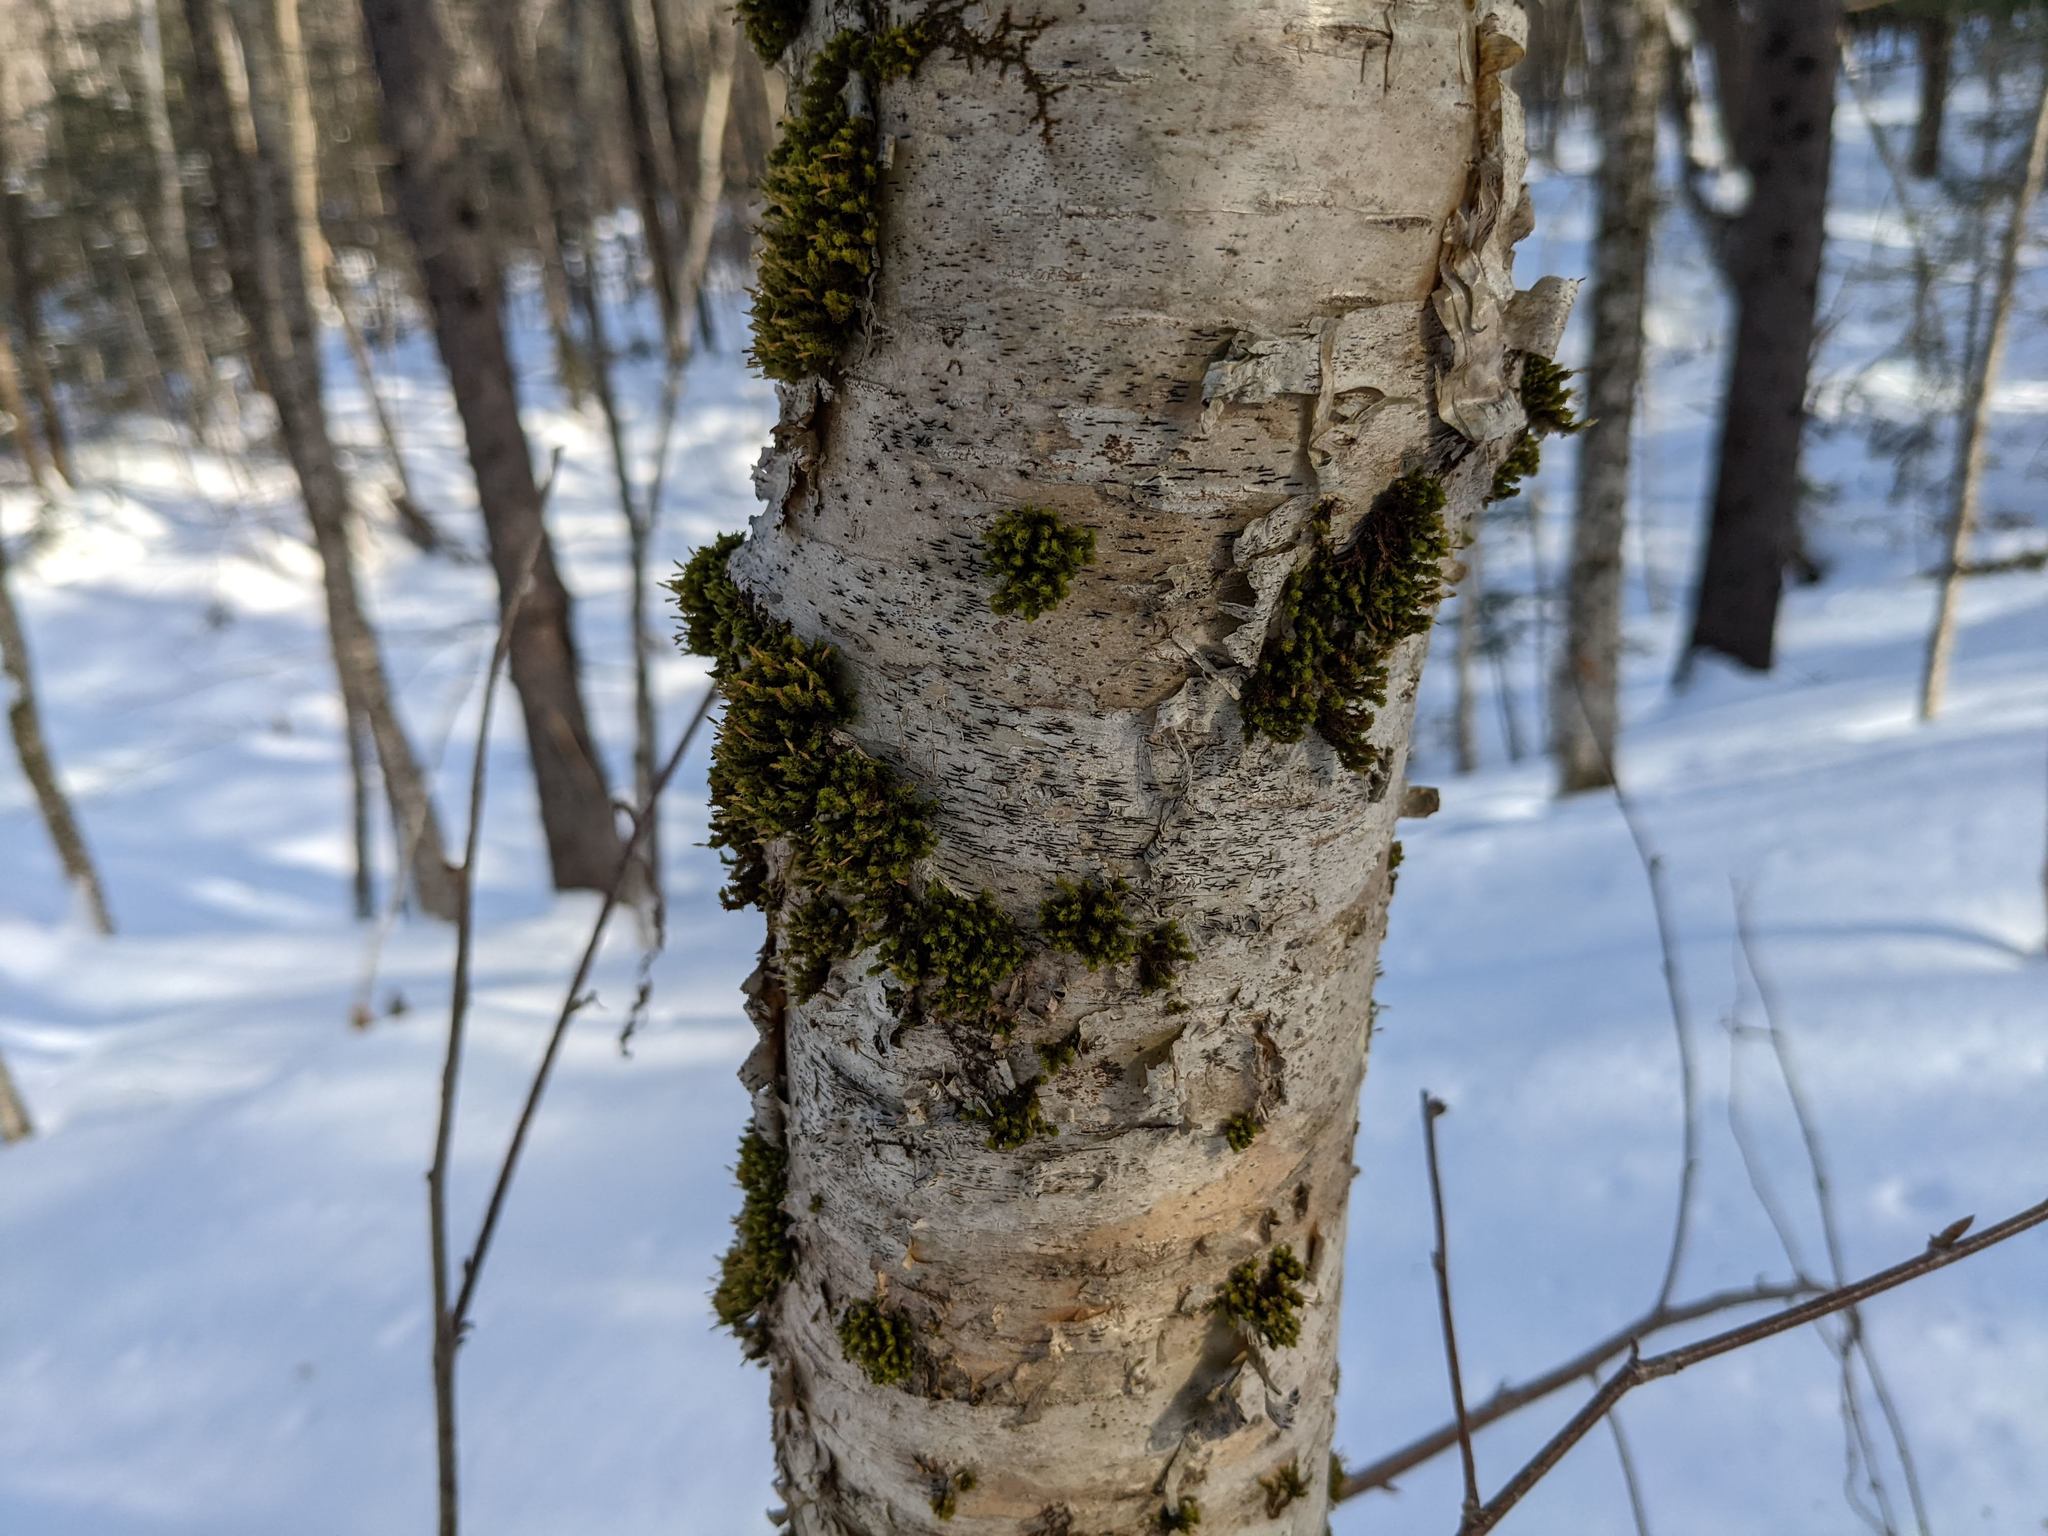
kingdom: Plantae
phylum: Bryophyta
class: Bryopsida
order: Orthotrichales
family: Orthotrichaceae
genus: Ulota
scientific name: Ulota crispa
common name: Crisped pincushion moss
